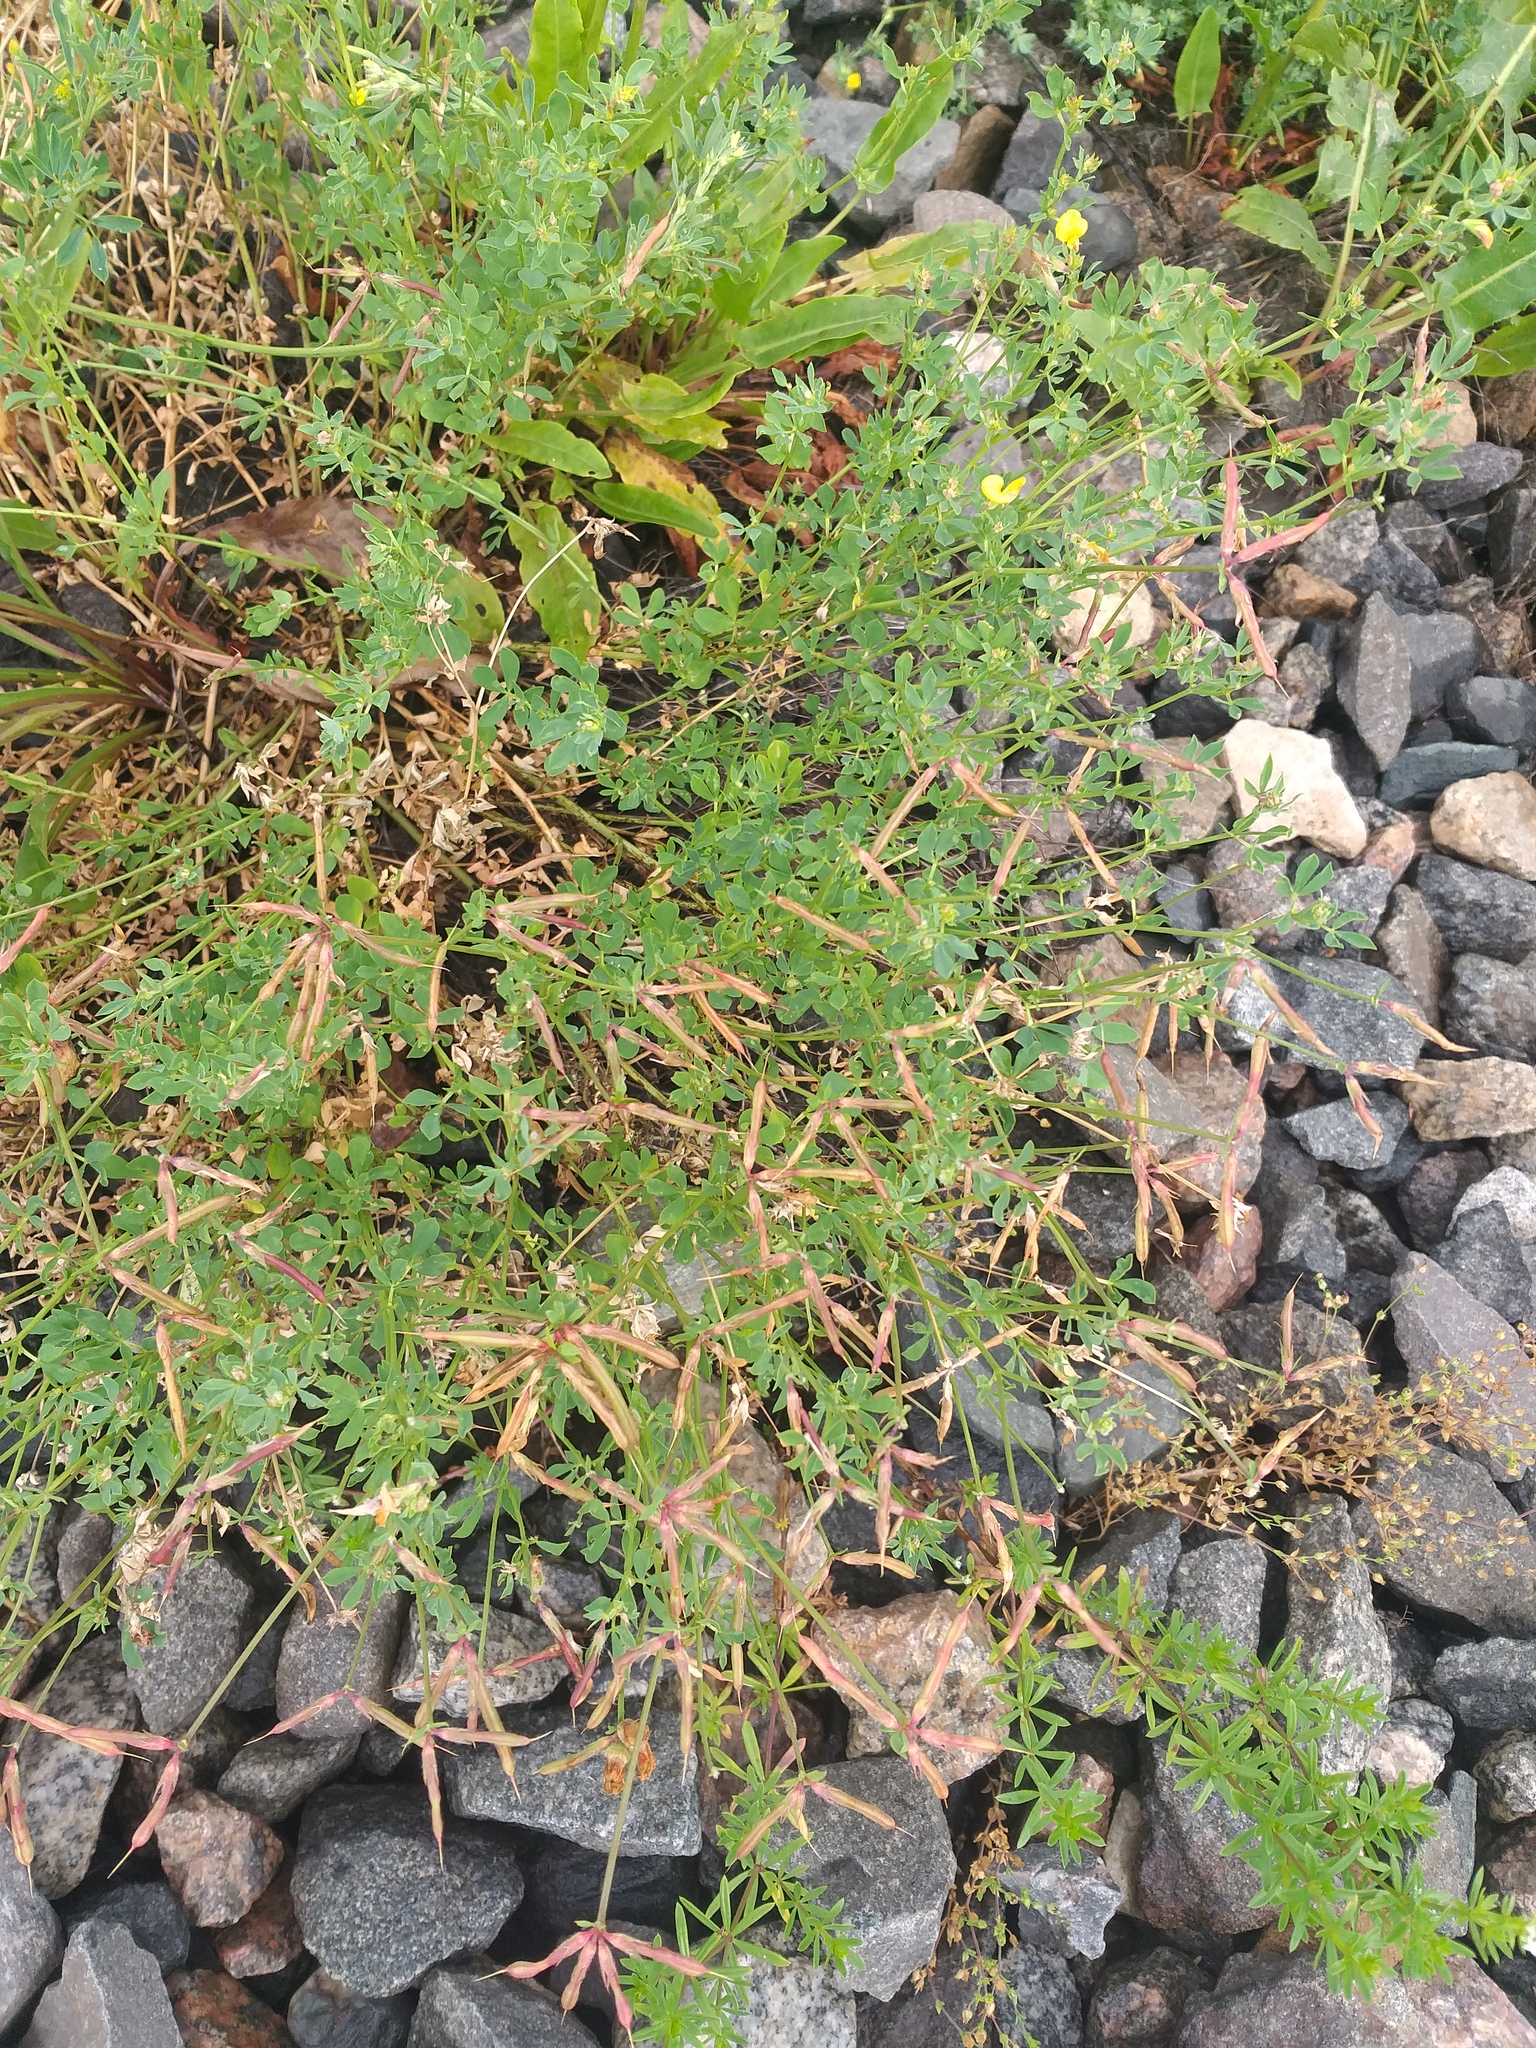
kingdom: Plantae
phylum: Tracheophyta
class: Magnoliopsida
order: Fabales
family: Fabaceae
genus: Lotus
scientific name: Lotus corniculatus
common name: Common bird's-foot-trefoil
